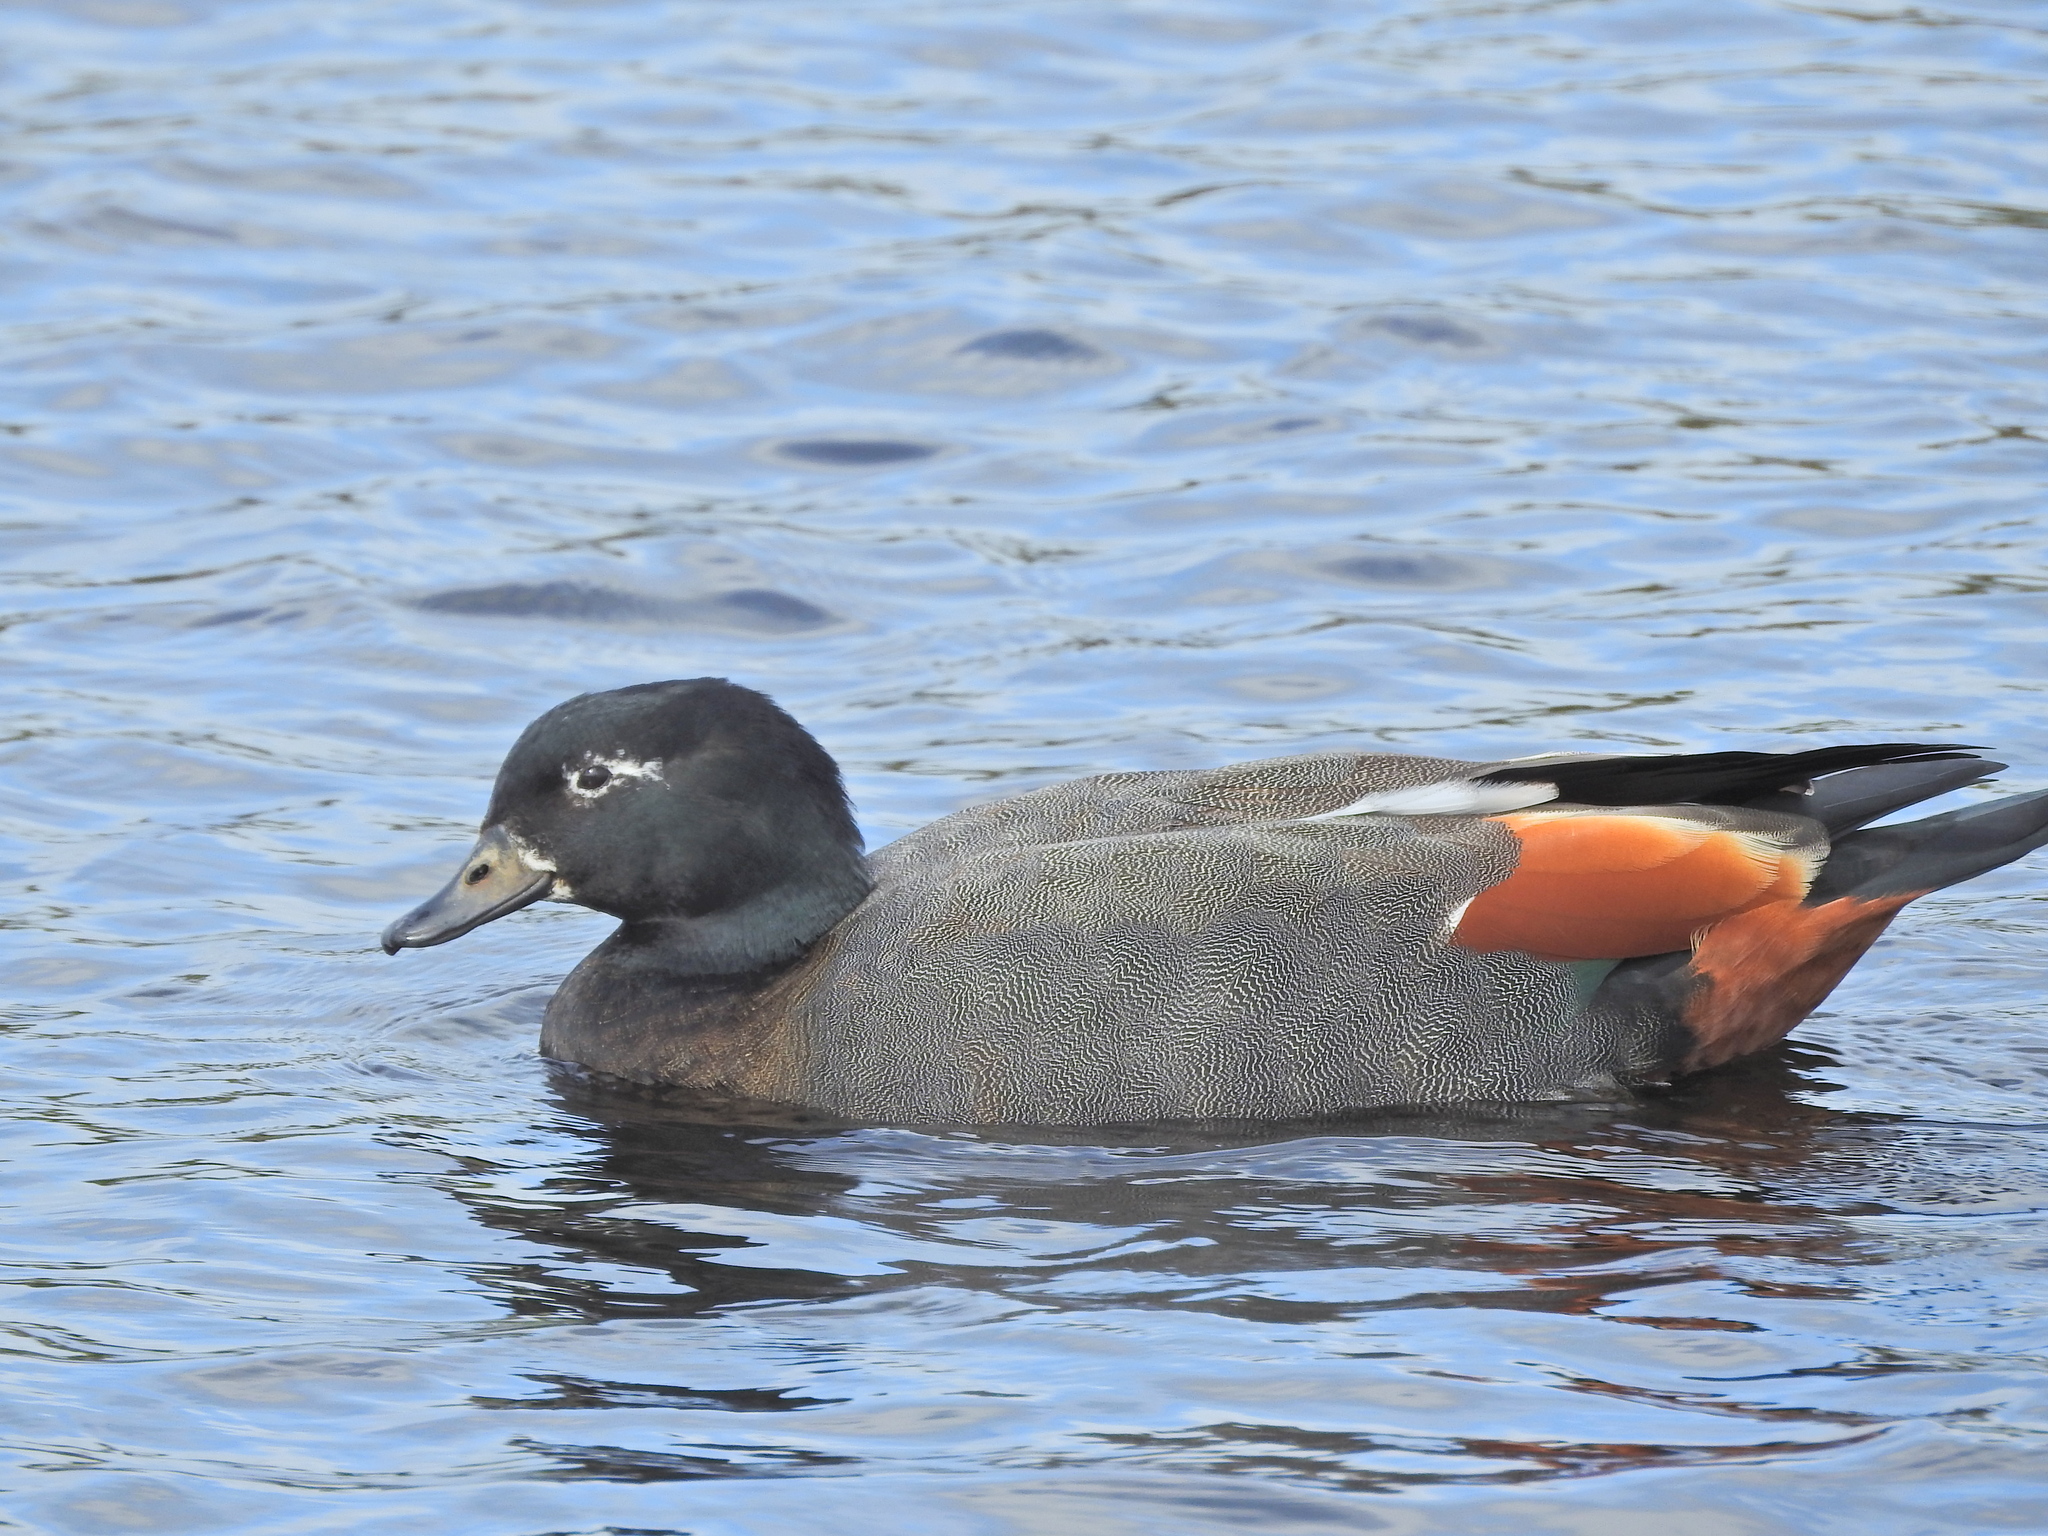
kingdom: Animalia
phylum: Chordata
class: Aves
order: Anseriformes
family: Anatidae
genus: Tadorna
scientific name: Tadorna variegata
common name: Paradise shelduck
